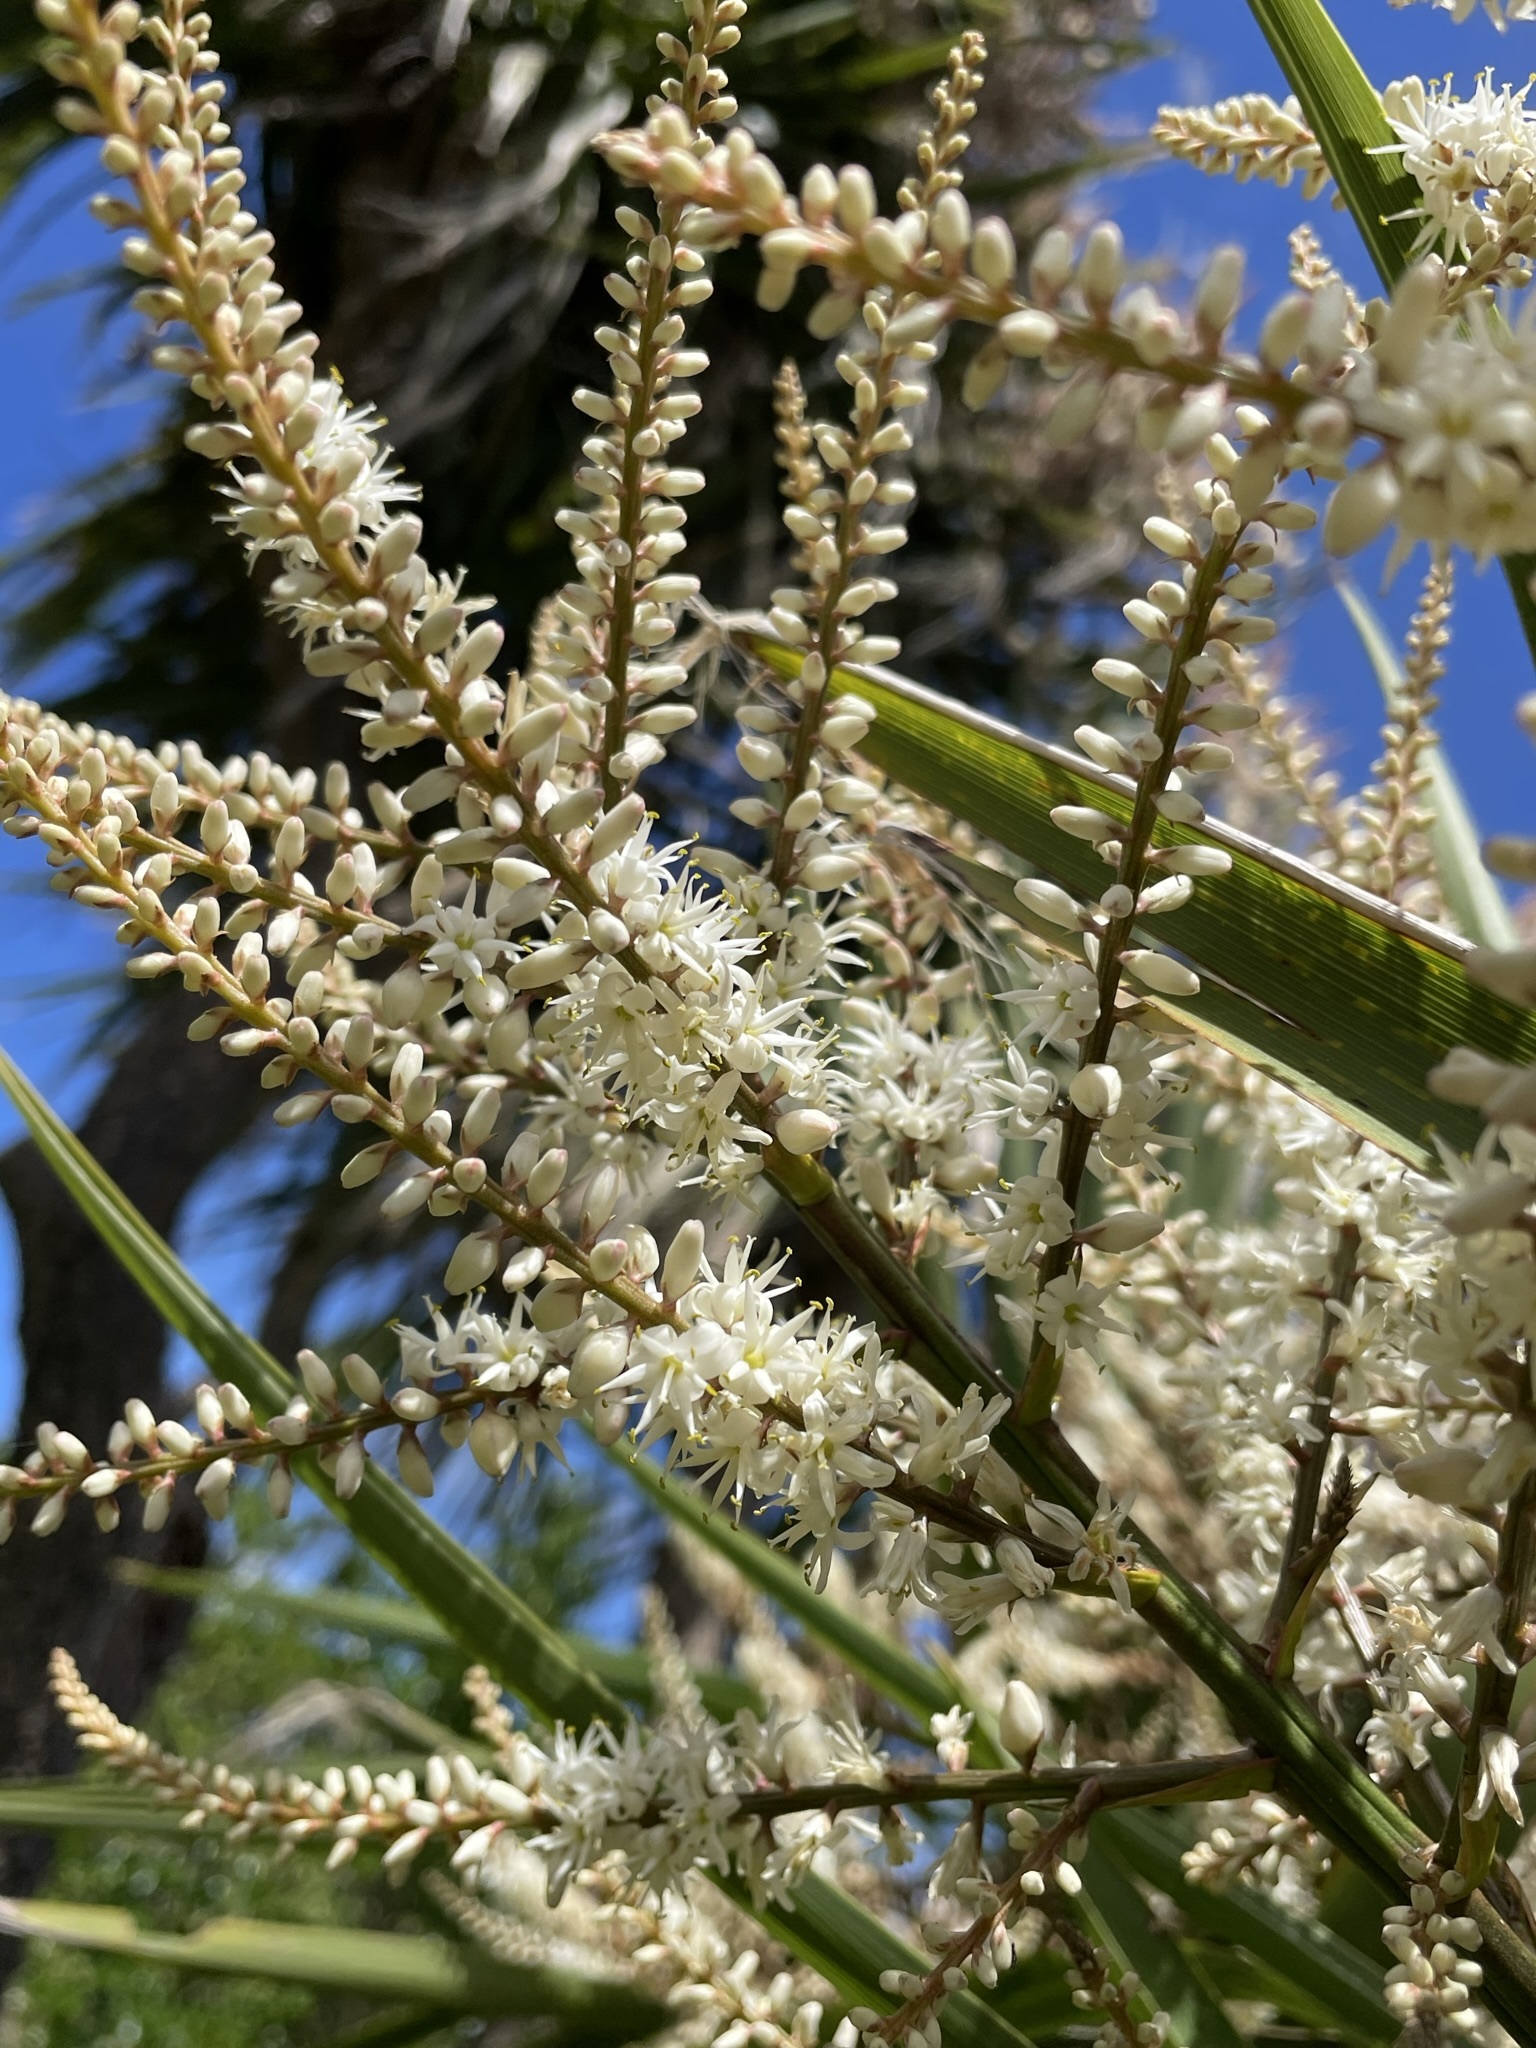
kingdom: Plantae
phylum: Tracheophyta
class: Liliopsida
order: Asparagales
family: Asparagaceae
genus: Cordyline
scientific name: Cordyline australis
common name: Cabbage-palm
